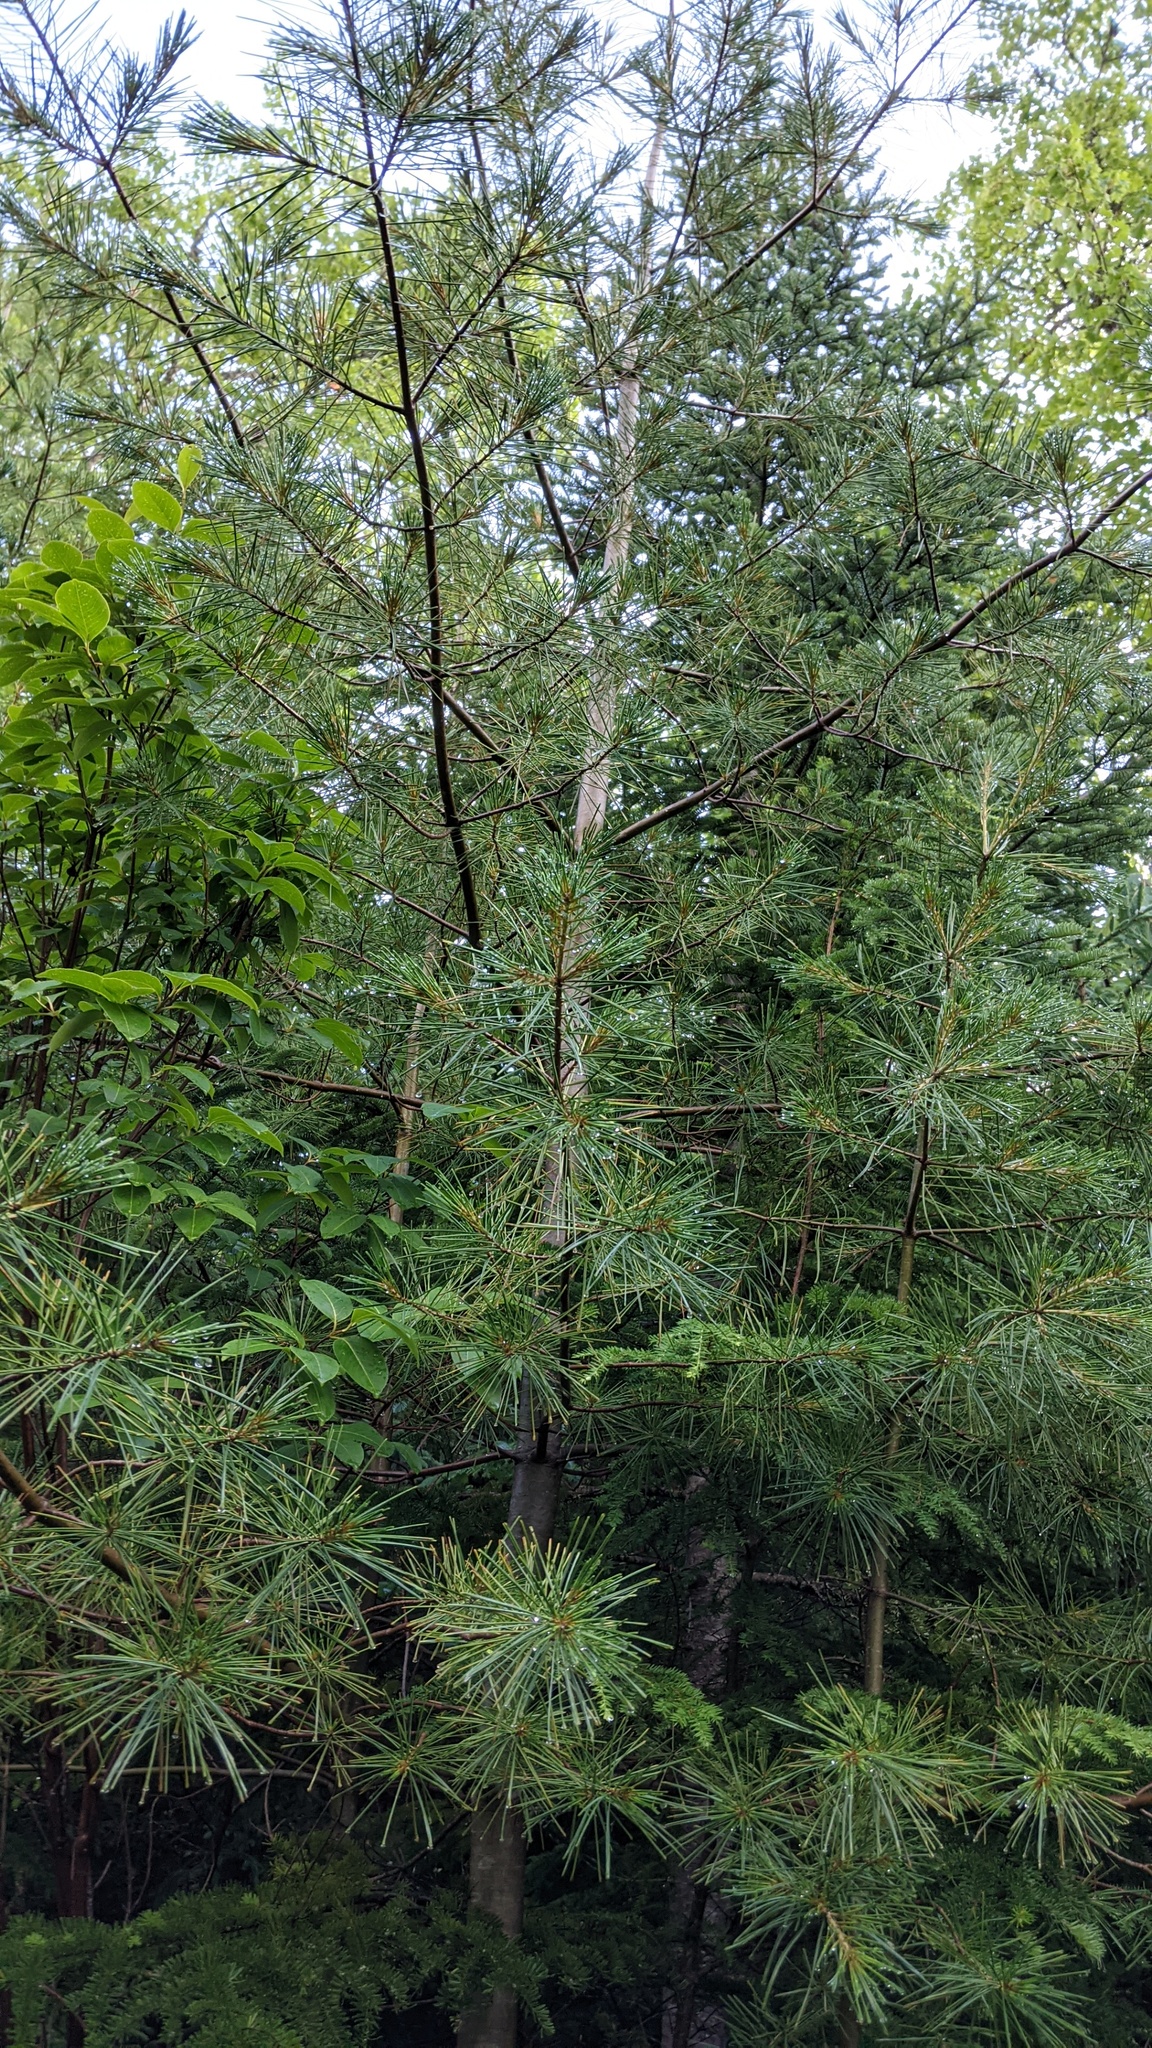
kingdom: Plantae
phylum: Tracheophyta
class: Pinopsida
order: Pinales
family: Pinaceae
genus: Pinus
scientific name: Pinus strobus
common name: Weymouth pine
